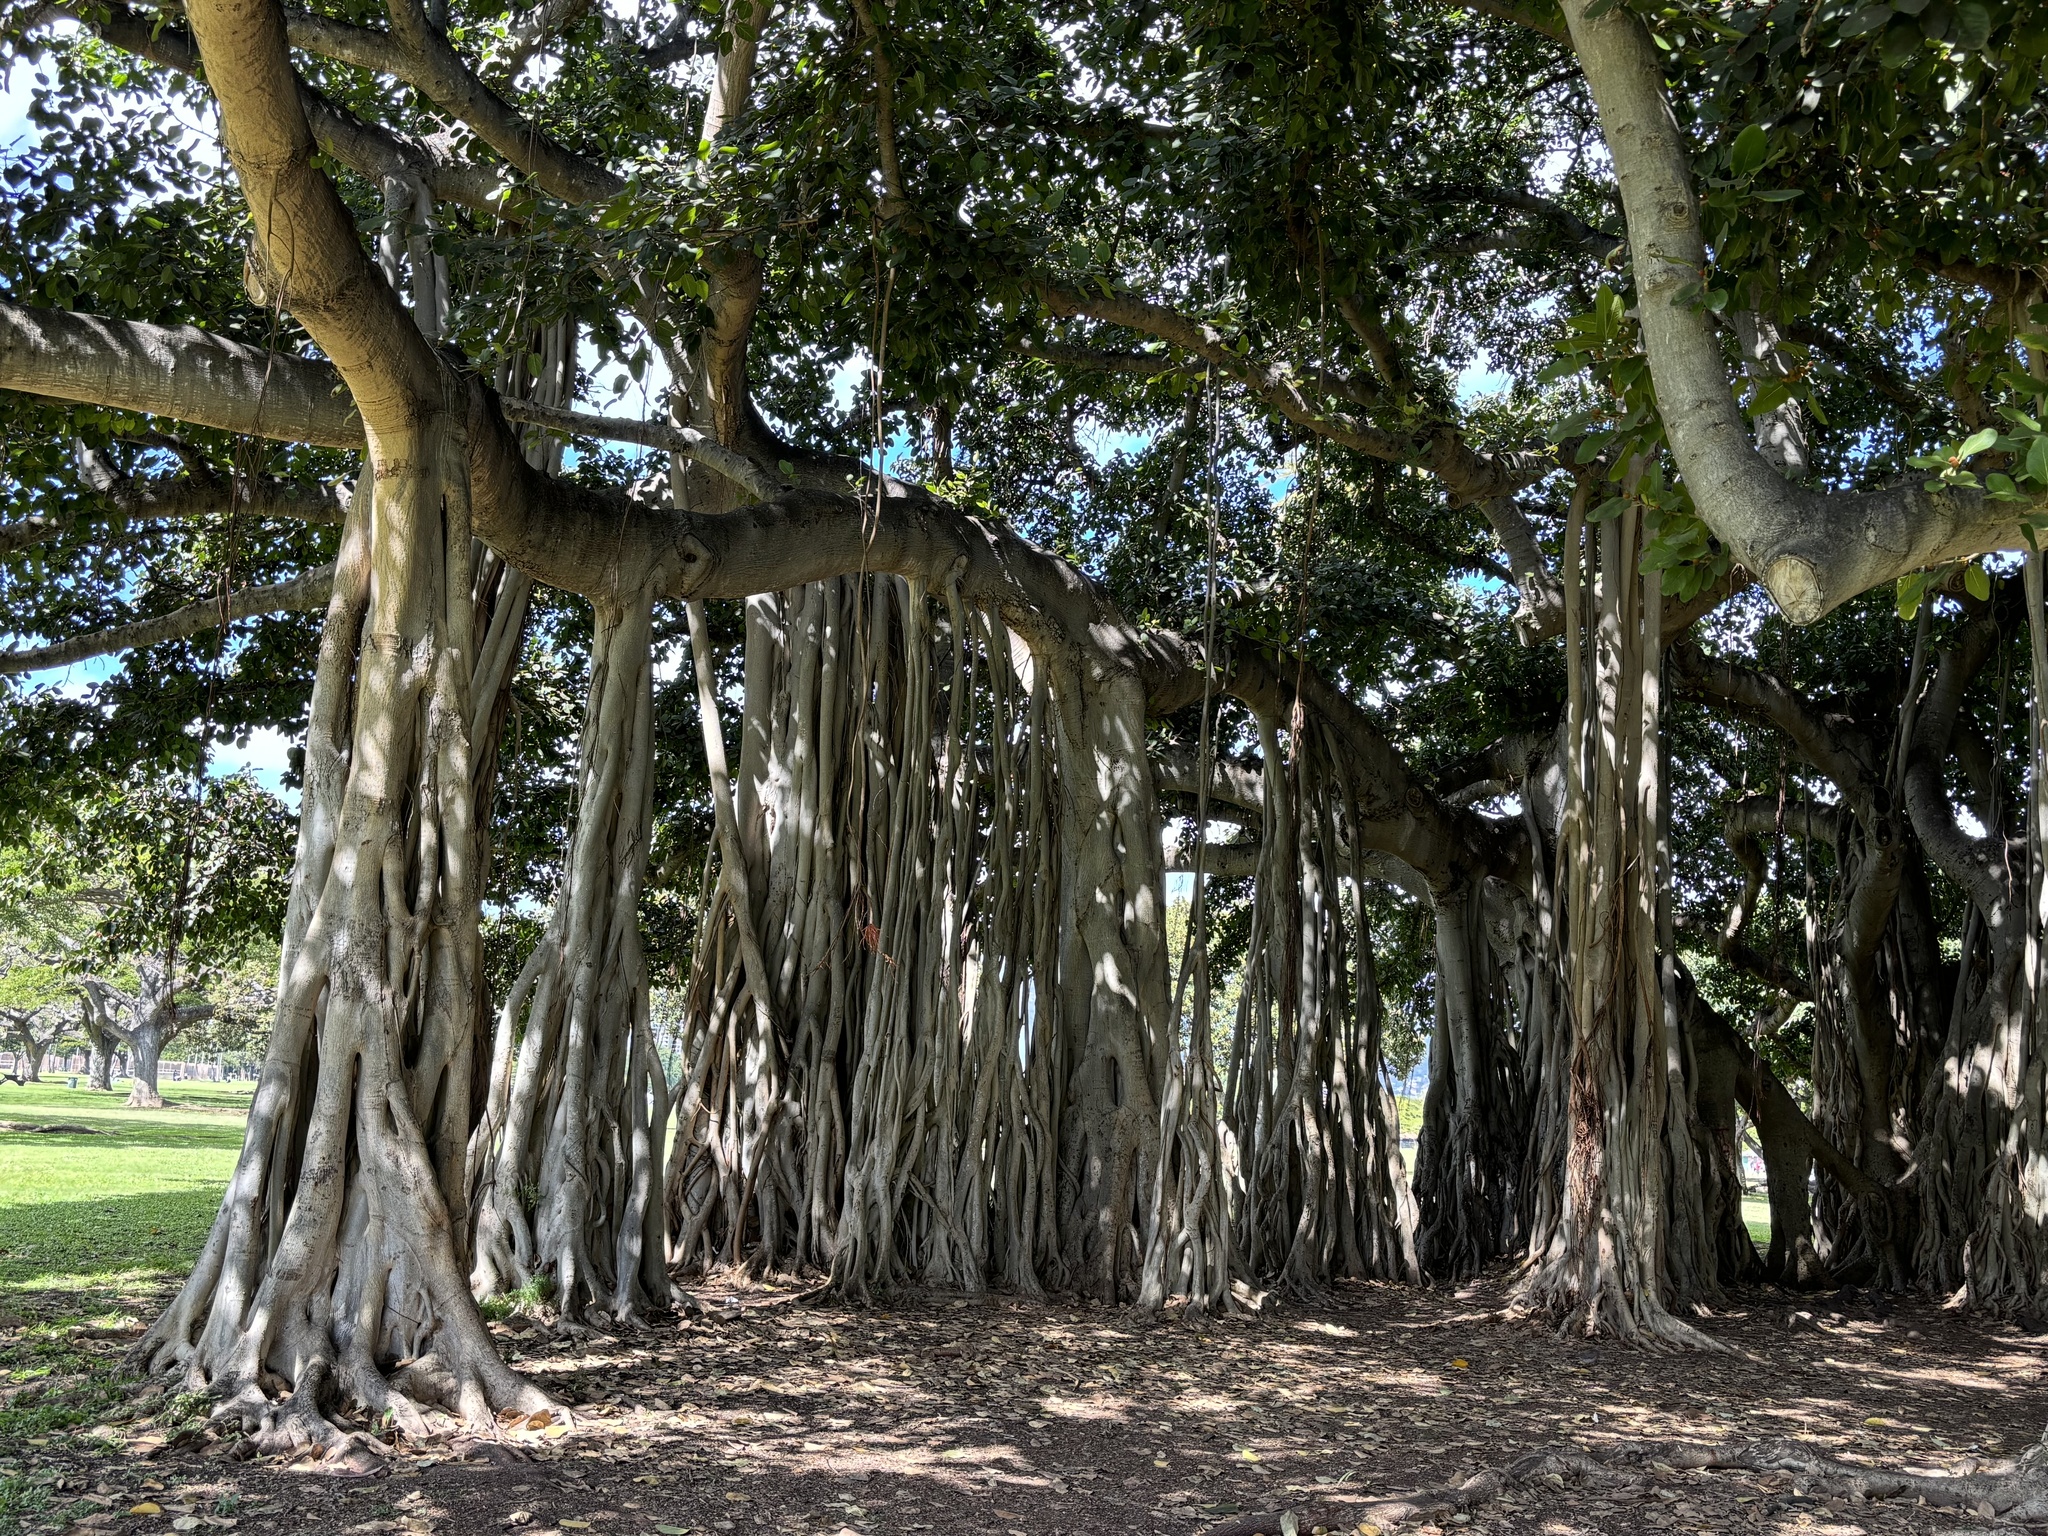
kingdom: Plantae
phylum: Tracheophyta
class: Magnoliopsida
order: Rosales
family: Moraceae
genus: Ficus
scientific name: Ficus microcarpa
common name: Chinese banyan
